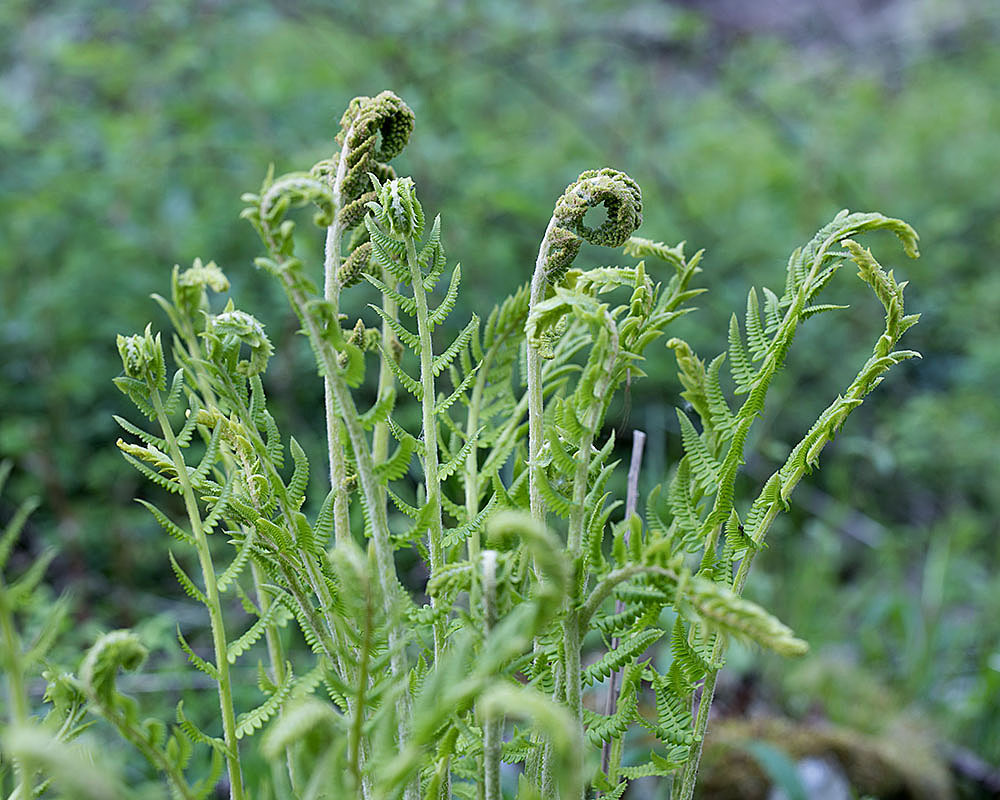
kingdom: Plantae
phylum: Tracheophyta
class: Polypodiopsida
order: Osmundales
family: Osmundaceae
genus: Osmundastrum
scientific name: Osmundastrum cinnamomeum
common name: Cinnamon fern
